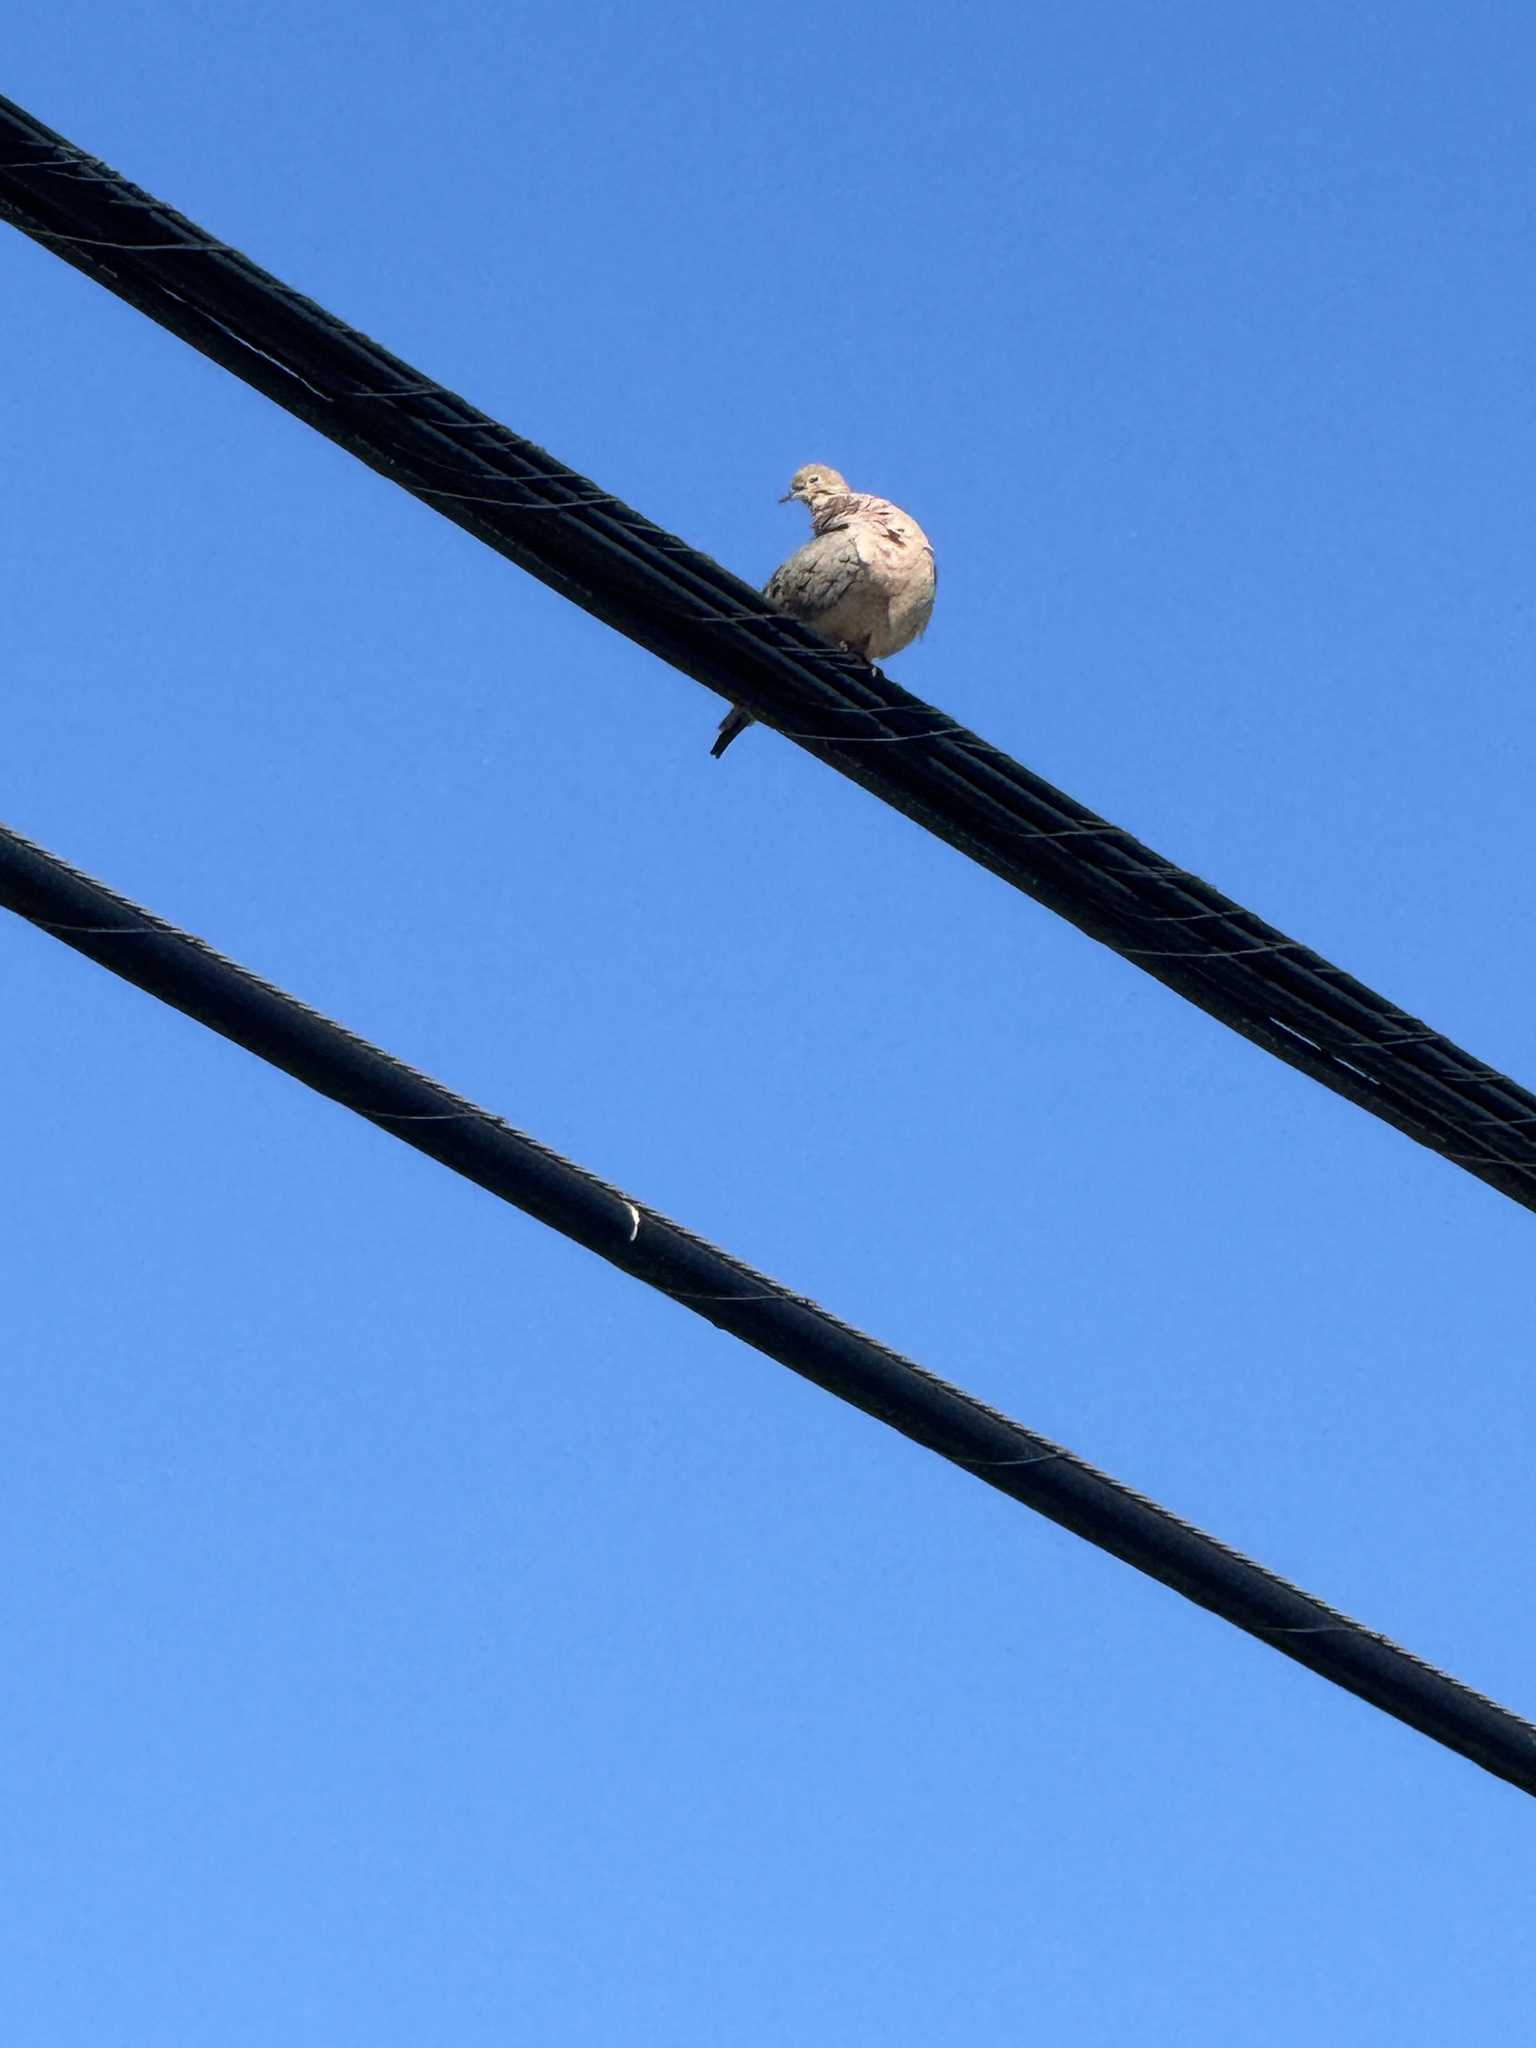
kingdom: Animalia
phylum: Chordata
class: Aves
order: Columbiformes
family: Columbidae
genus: Zenaida
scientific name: Zenaida macroura
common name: Mourning dove
